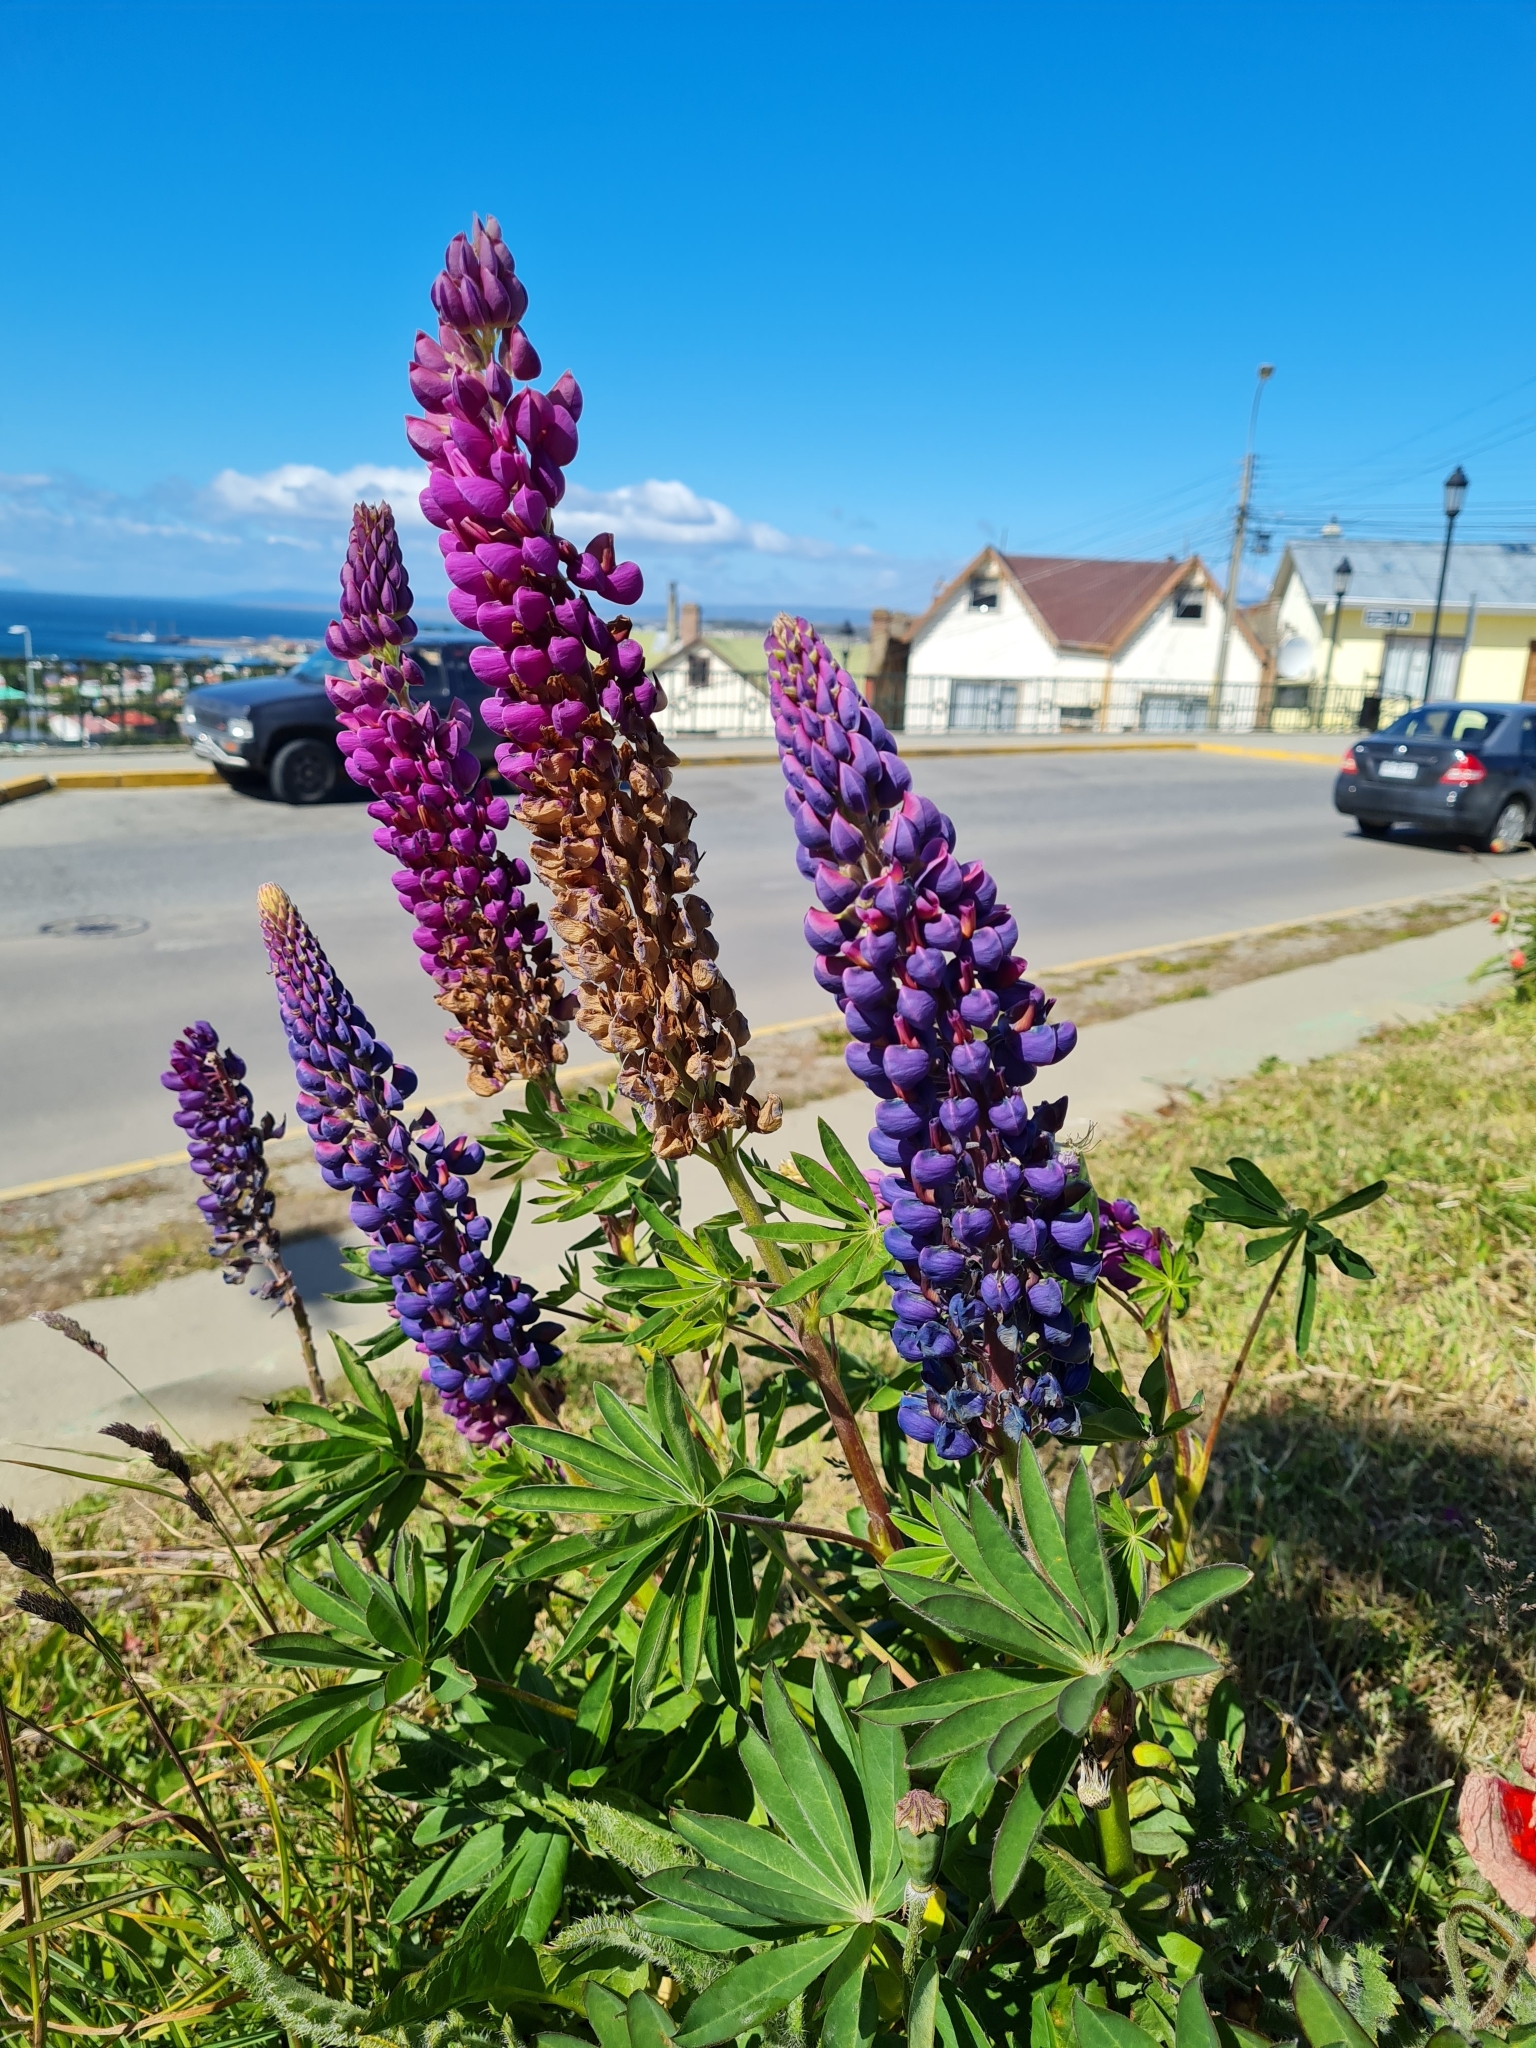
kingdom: Plantae
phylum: Tracheophyta
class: Magnoliopsida
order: Fabales
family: Fabaceae
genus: Lupinus
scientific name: Lupinus polyphyllus
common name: Garden lupin
